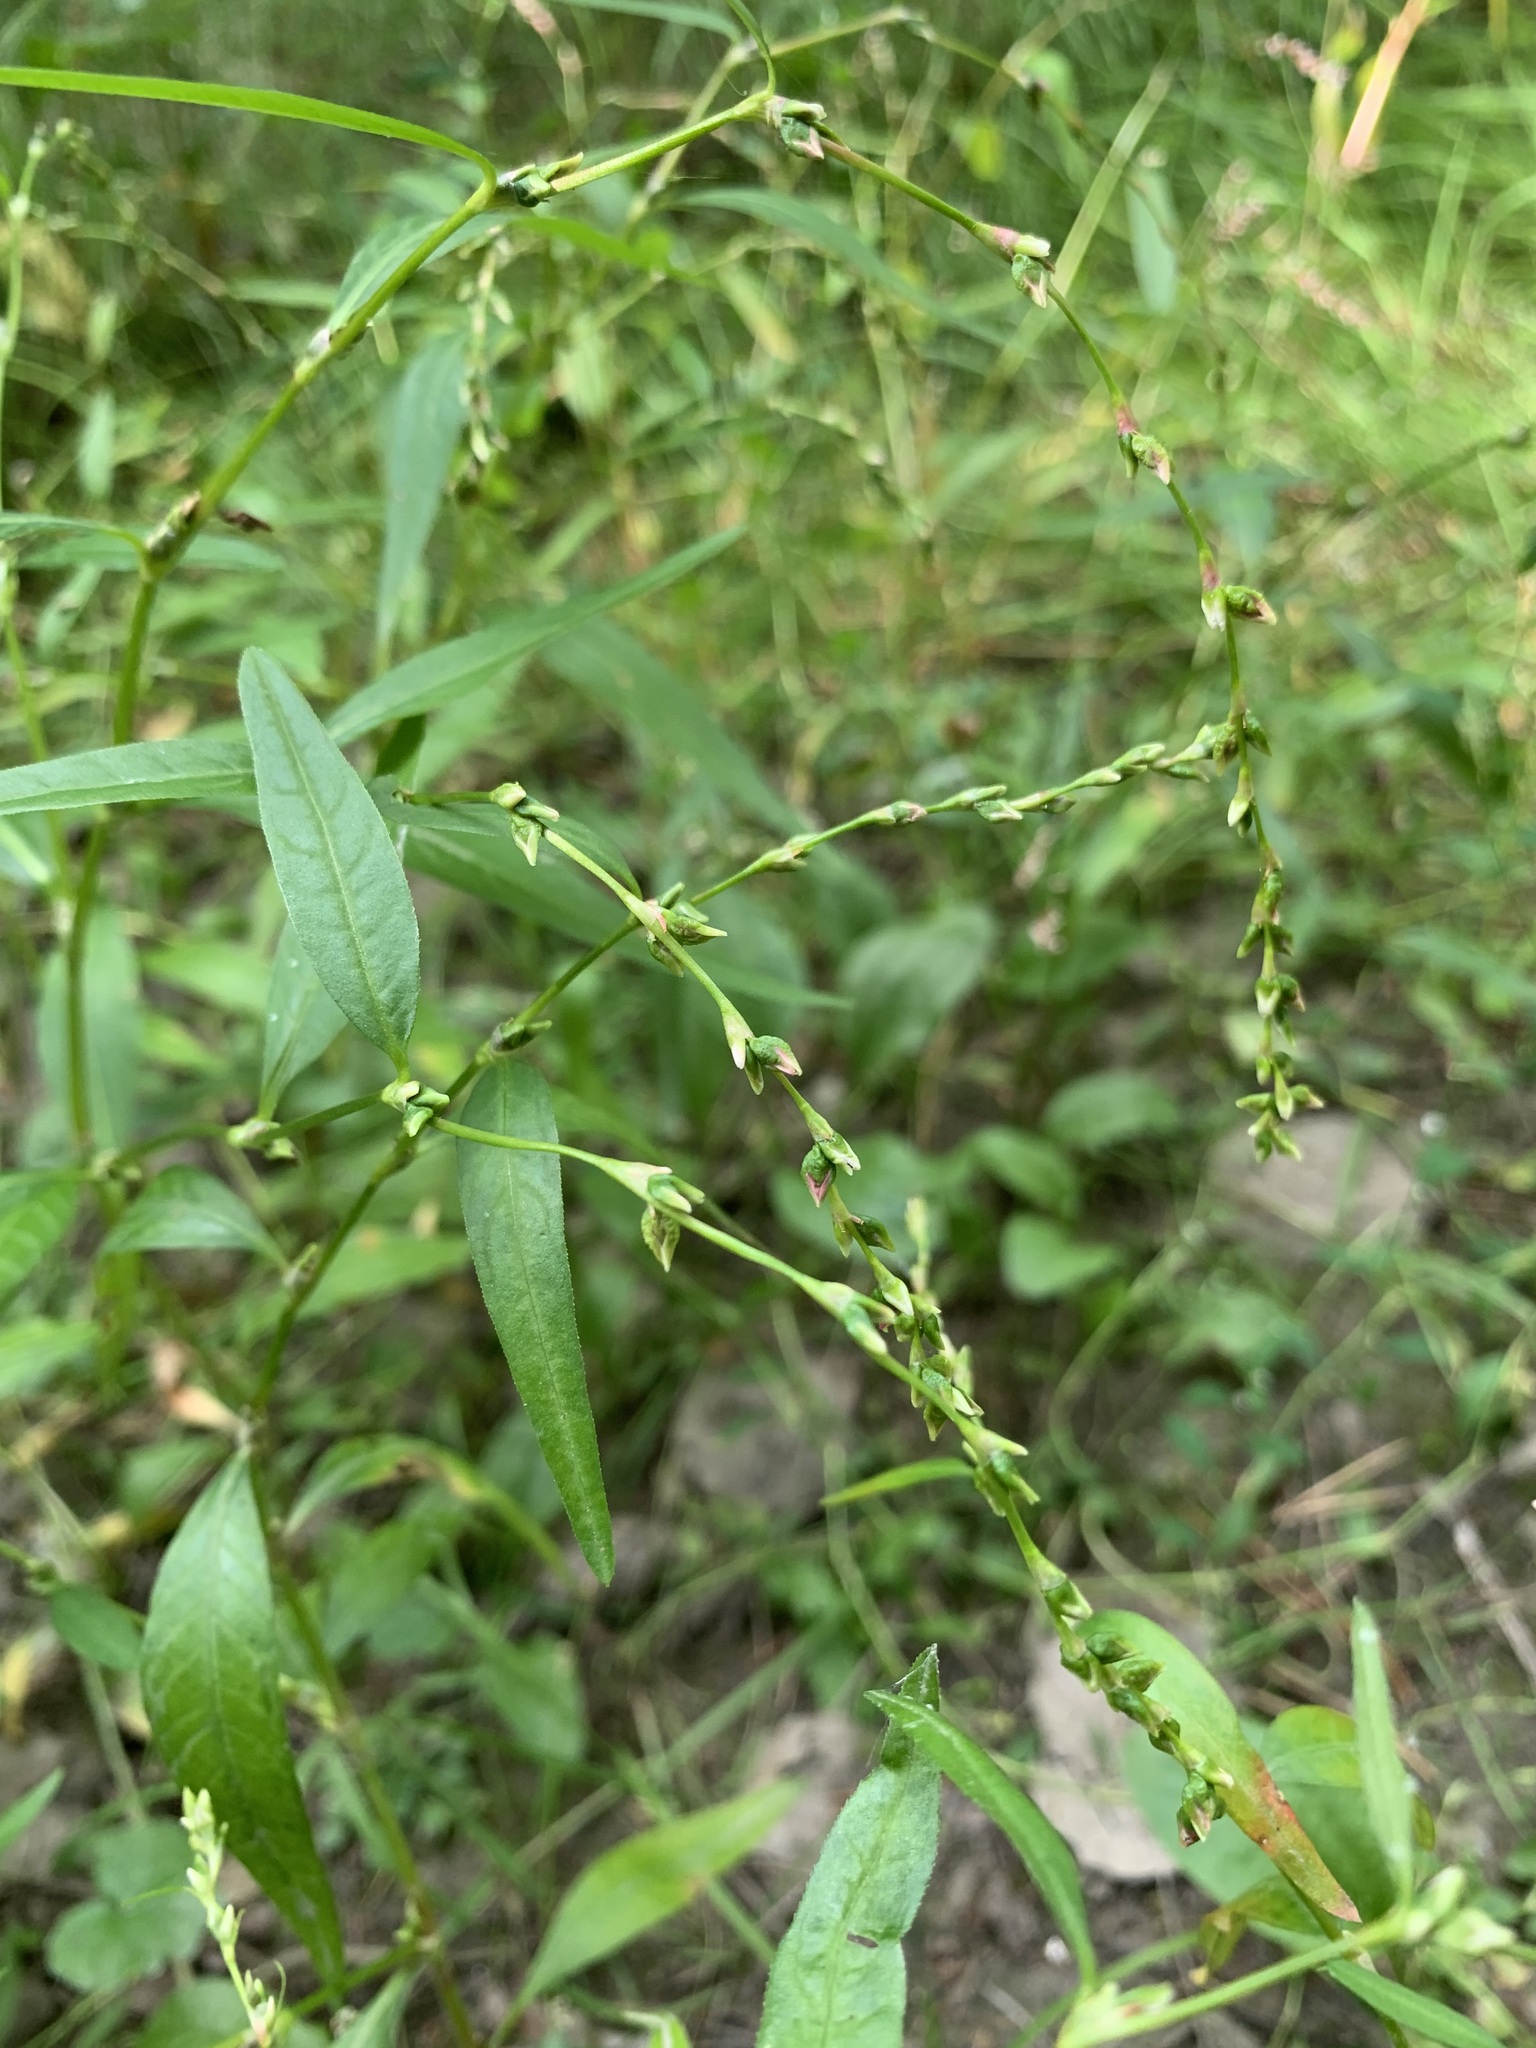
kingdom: Plantae
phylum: Tracheophyta
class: Magnoliopsida
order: Caryophyllales
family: Polygonaceae
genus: Persicaria
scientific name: Persicaria hydropiper
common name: Water-pepper
